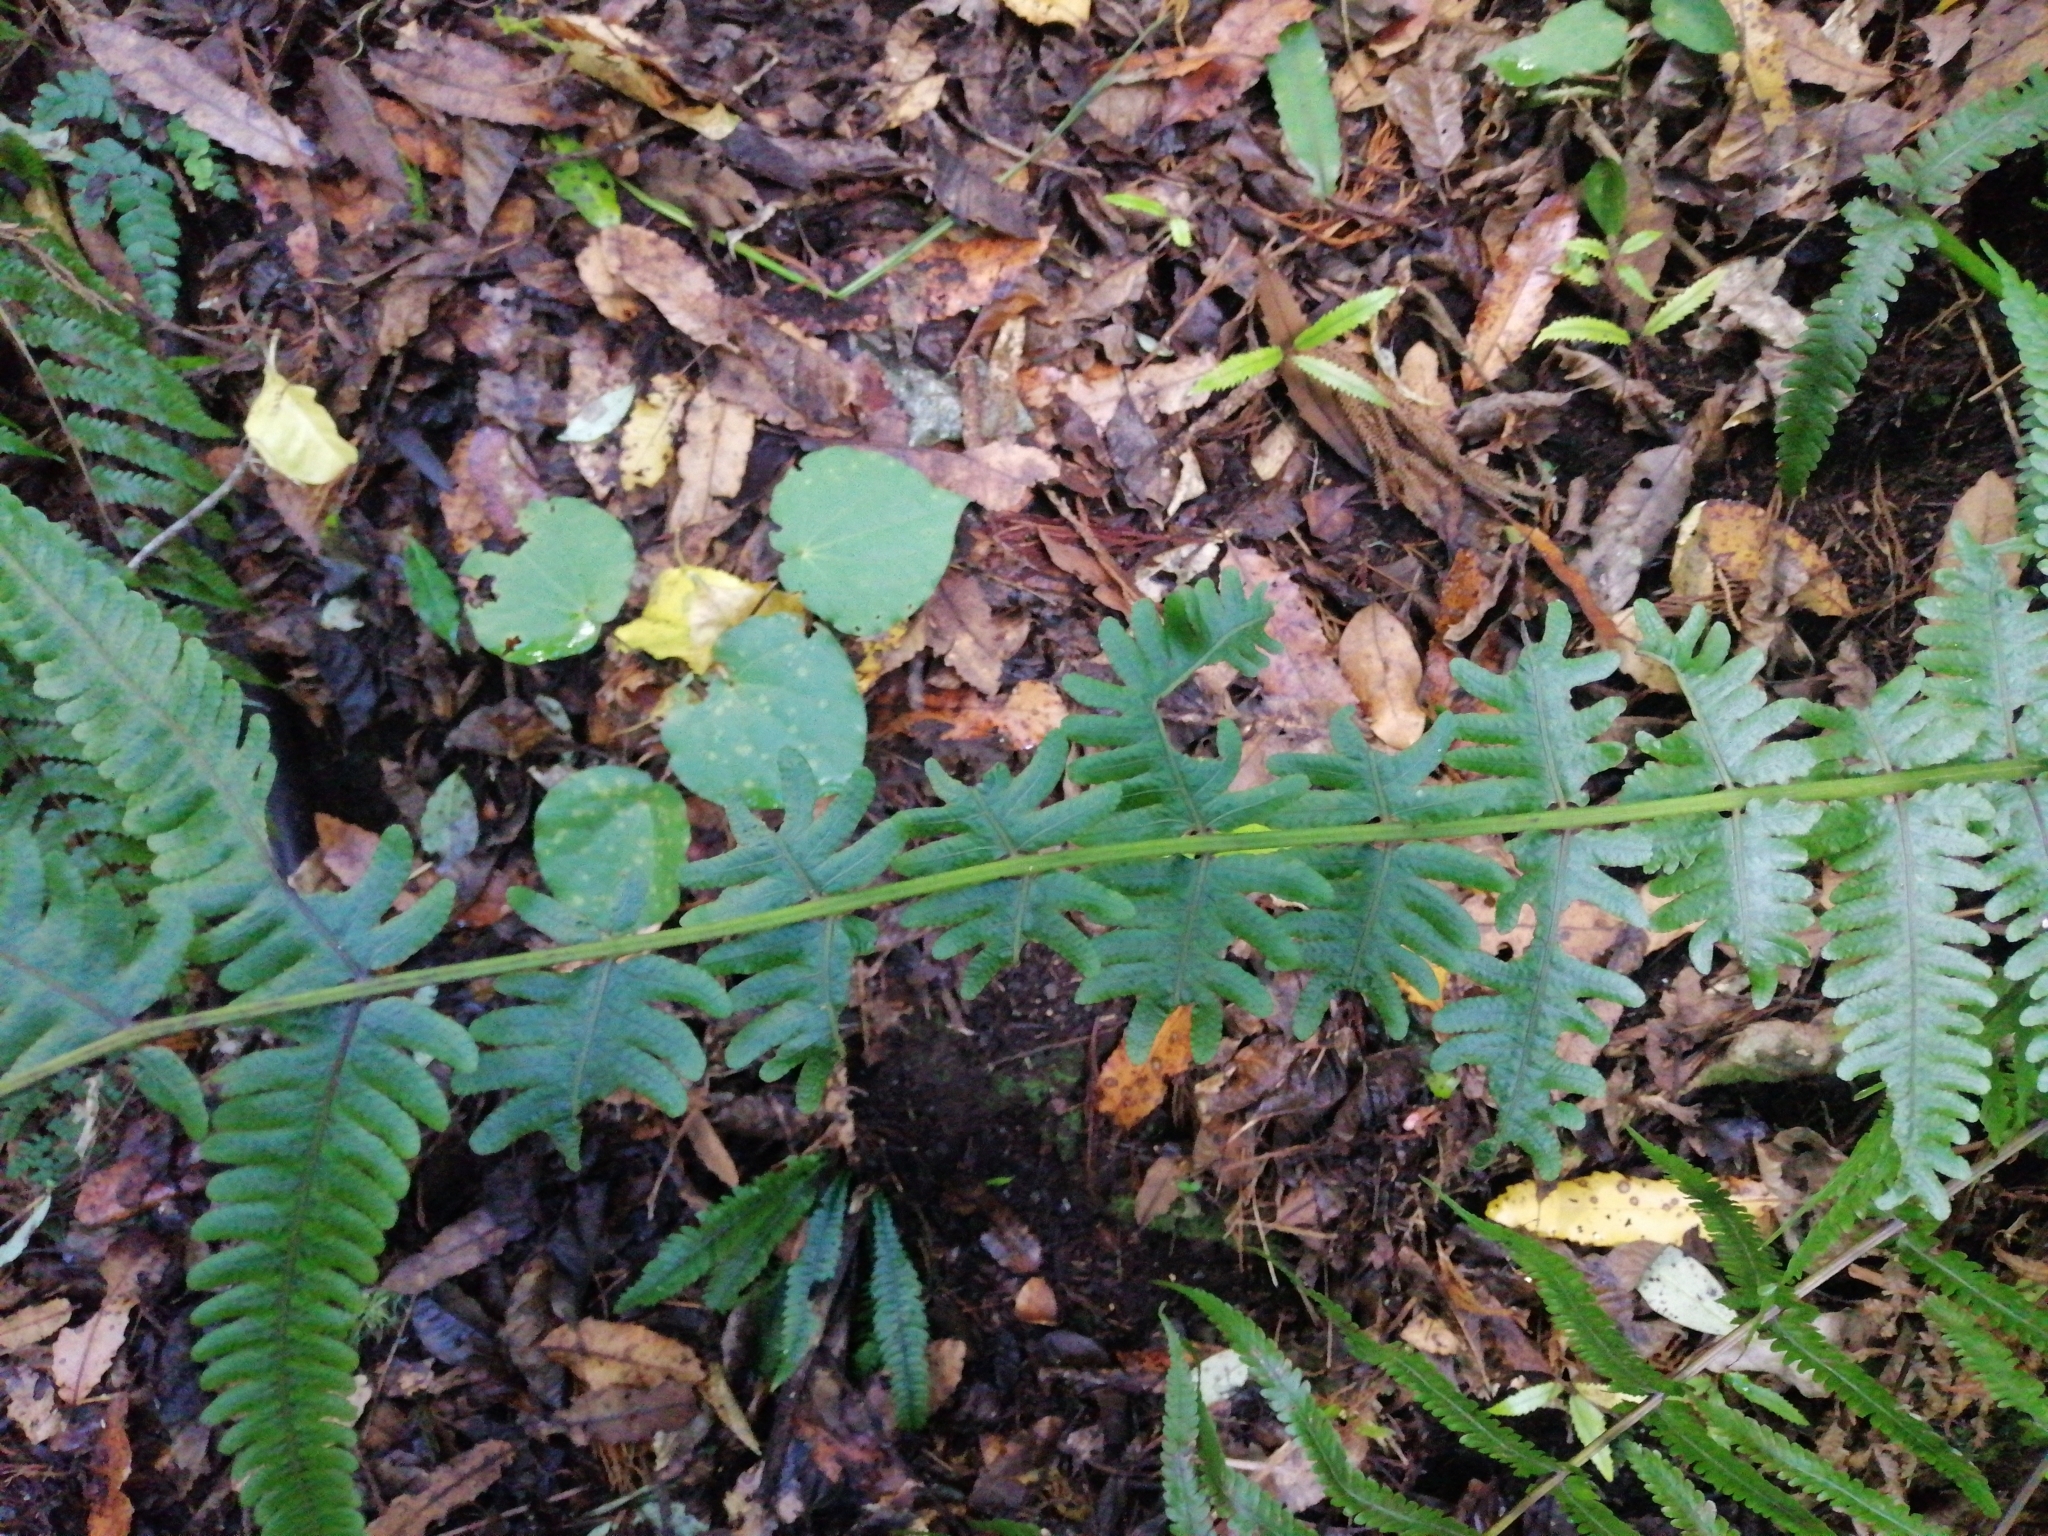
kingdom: Plantae
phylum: Tracheophyta
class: Polypodiopsida
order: Polypodiales
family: Thelypteridaceae
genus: Pakau
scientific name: Pakau pennigera
